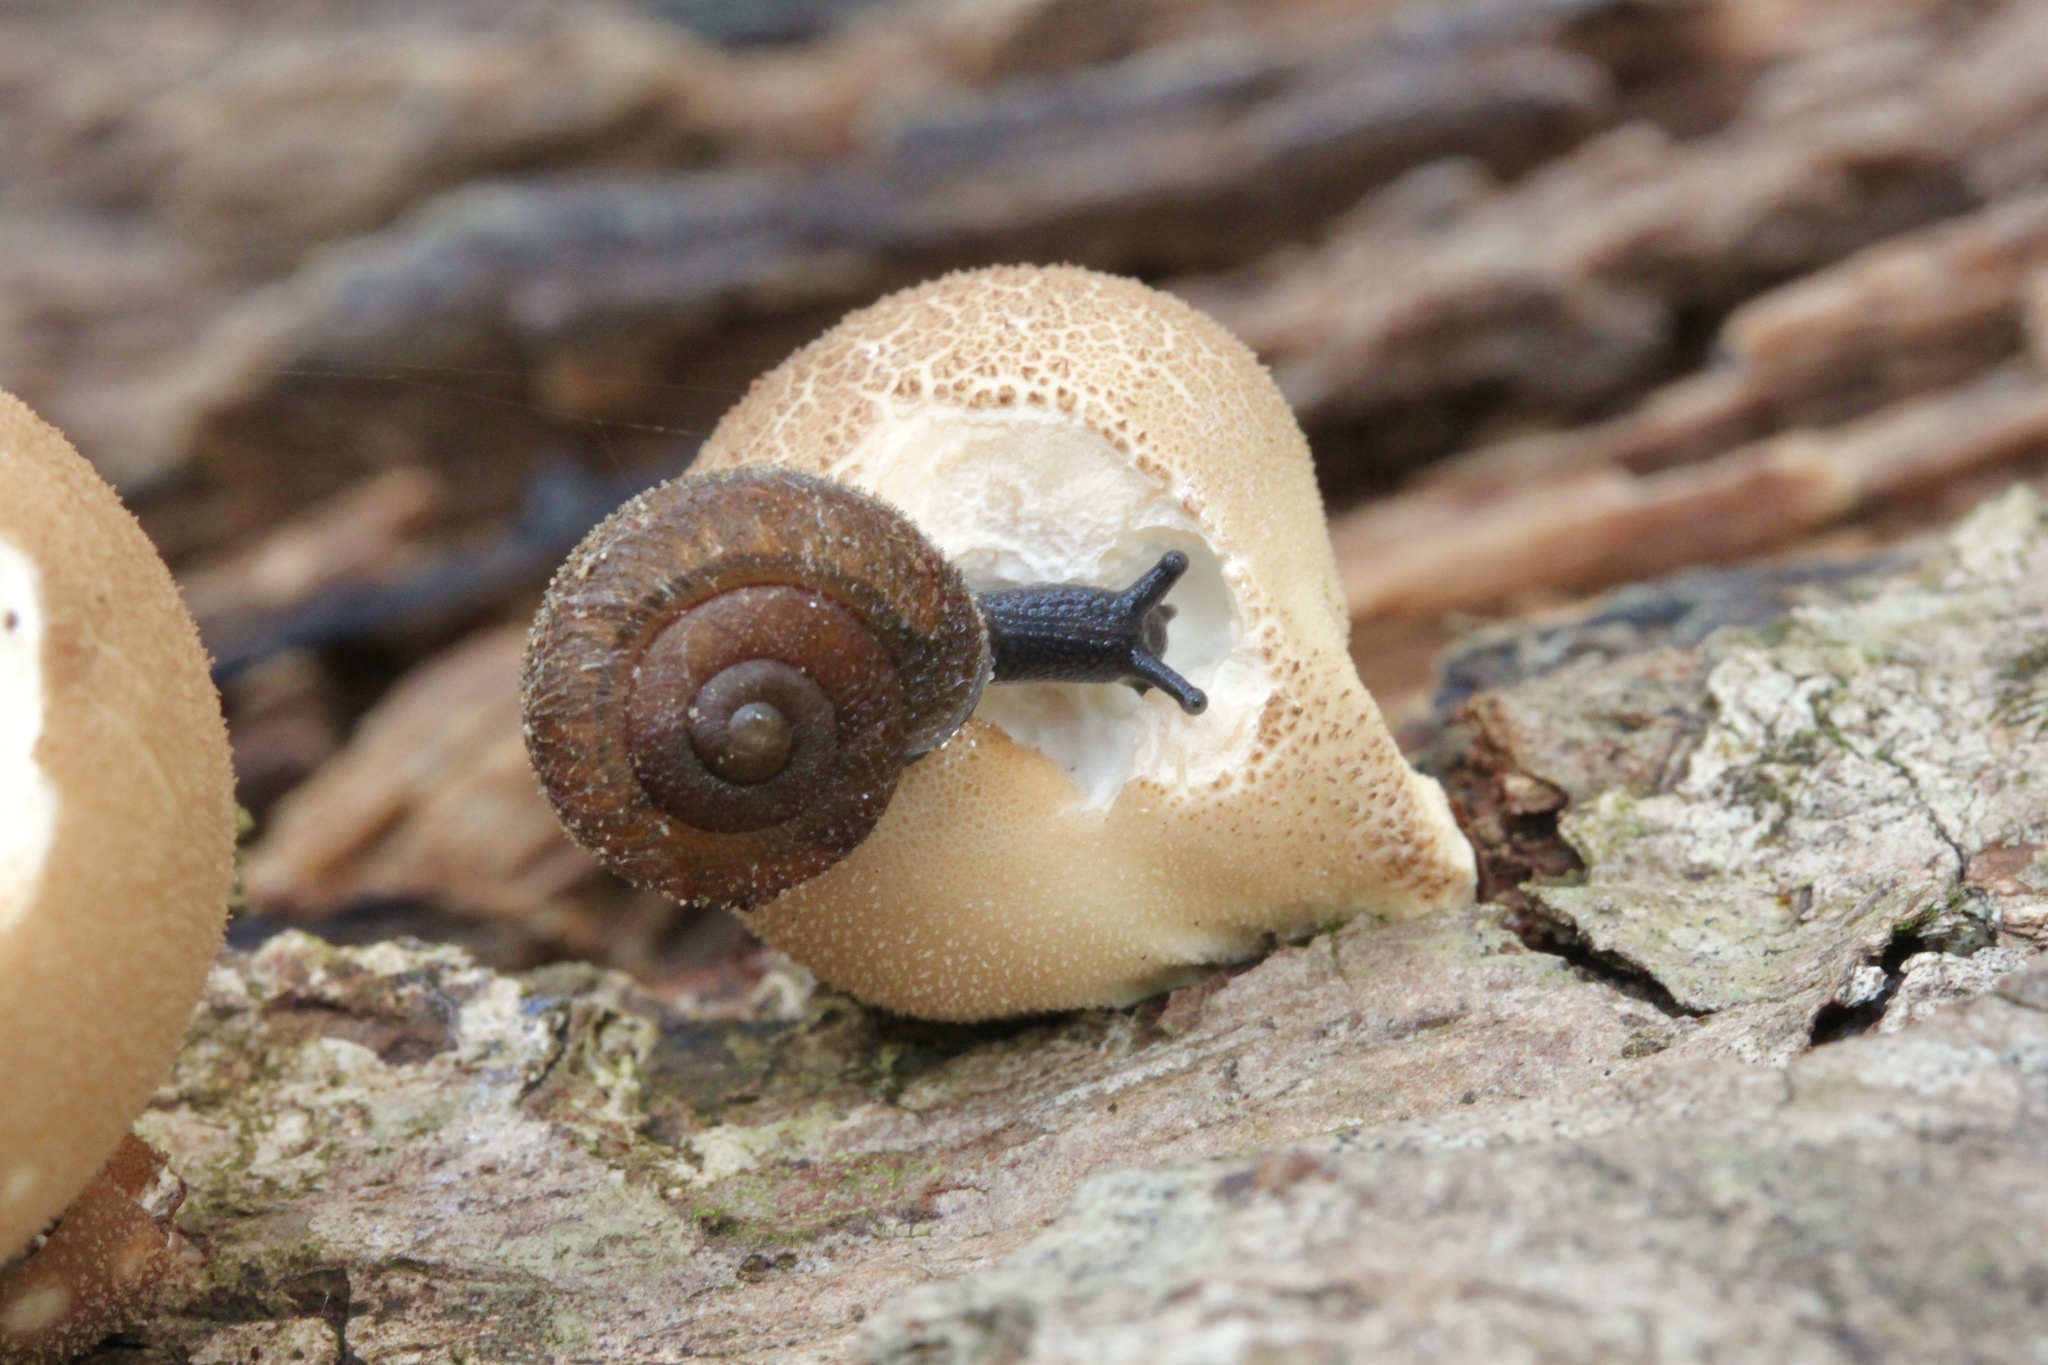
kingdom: Animalia
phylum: Mollusca
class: Gastropoda
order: Stylommatophora
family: Polygyridae
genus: Xolotrema
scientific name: Xolotrema denotatum
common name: Velvet wedge
